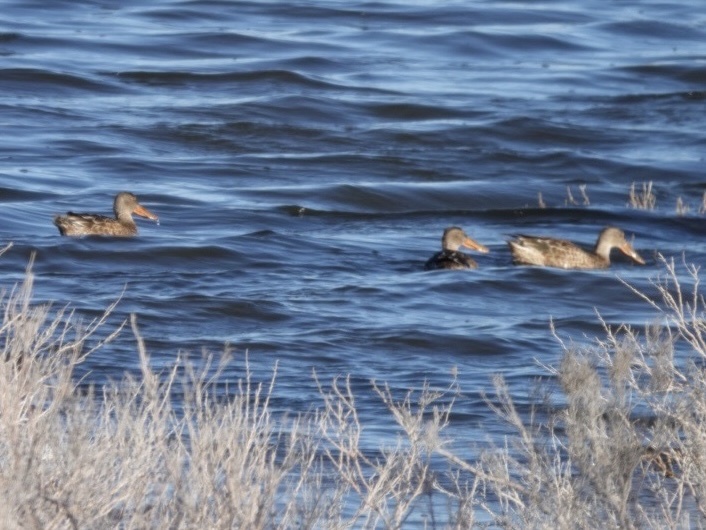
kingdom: Animalia
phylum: Chordata
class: Aves
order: Anseriformes
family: Anatidae
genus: Spatula
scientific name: Spatula clypeata
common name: Northern shoveler
